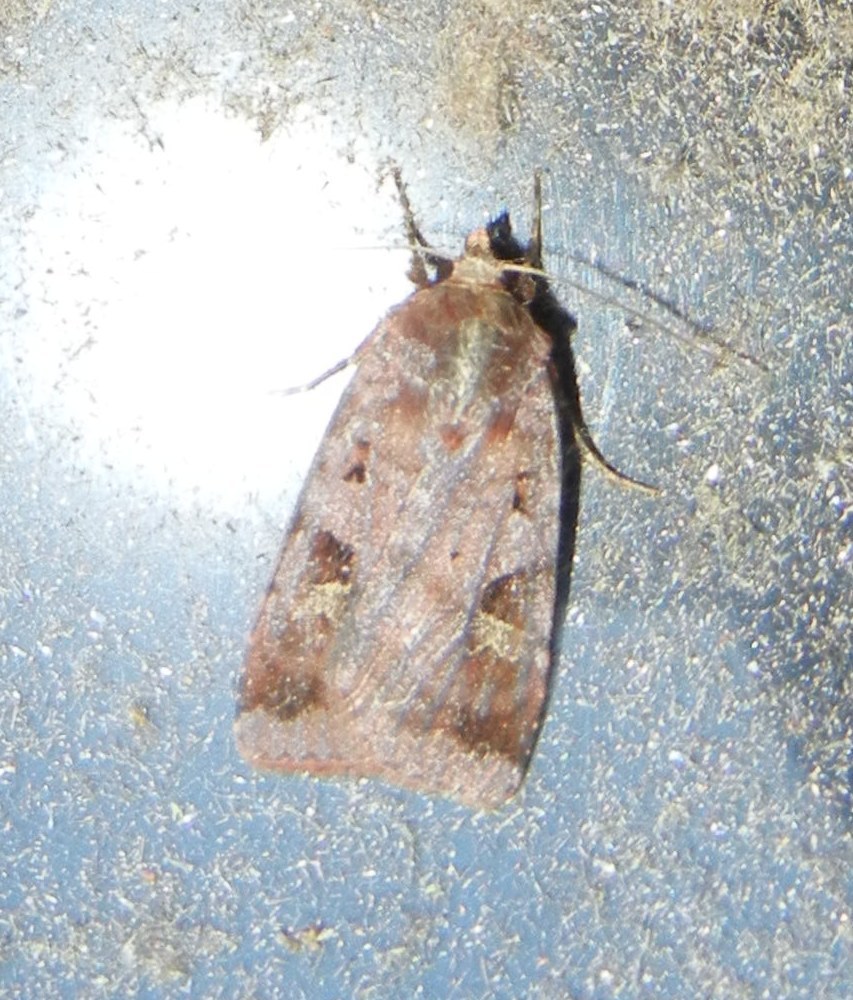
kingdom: Animalia
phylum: Arthropoda
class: Insecta
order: Lepidoptera
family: Noctuidae
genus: Diarsia
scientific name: Diarsia brunnea
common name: Purple clay
